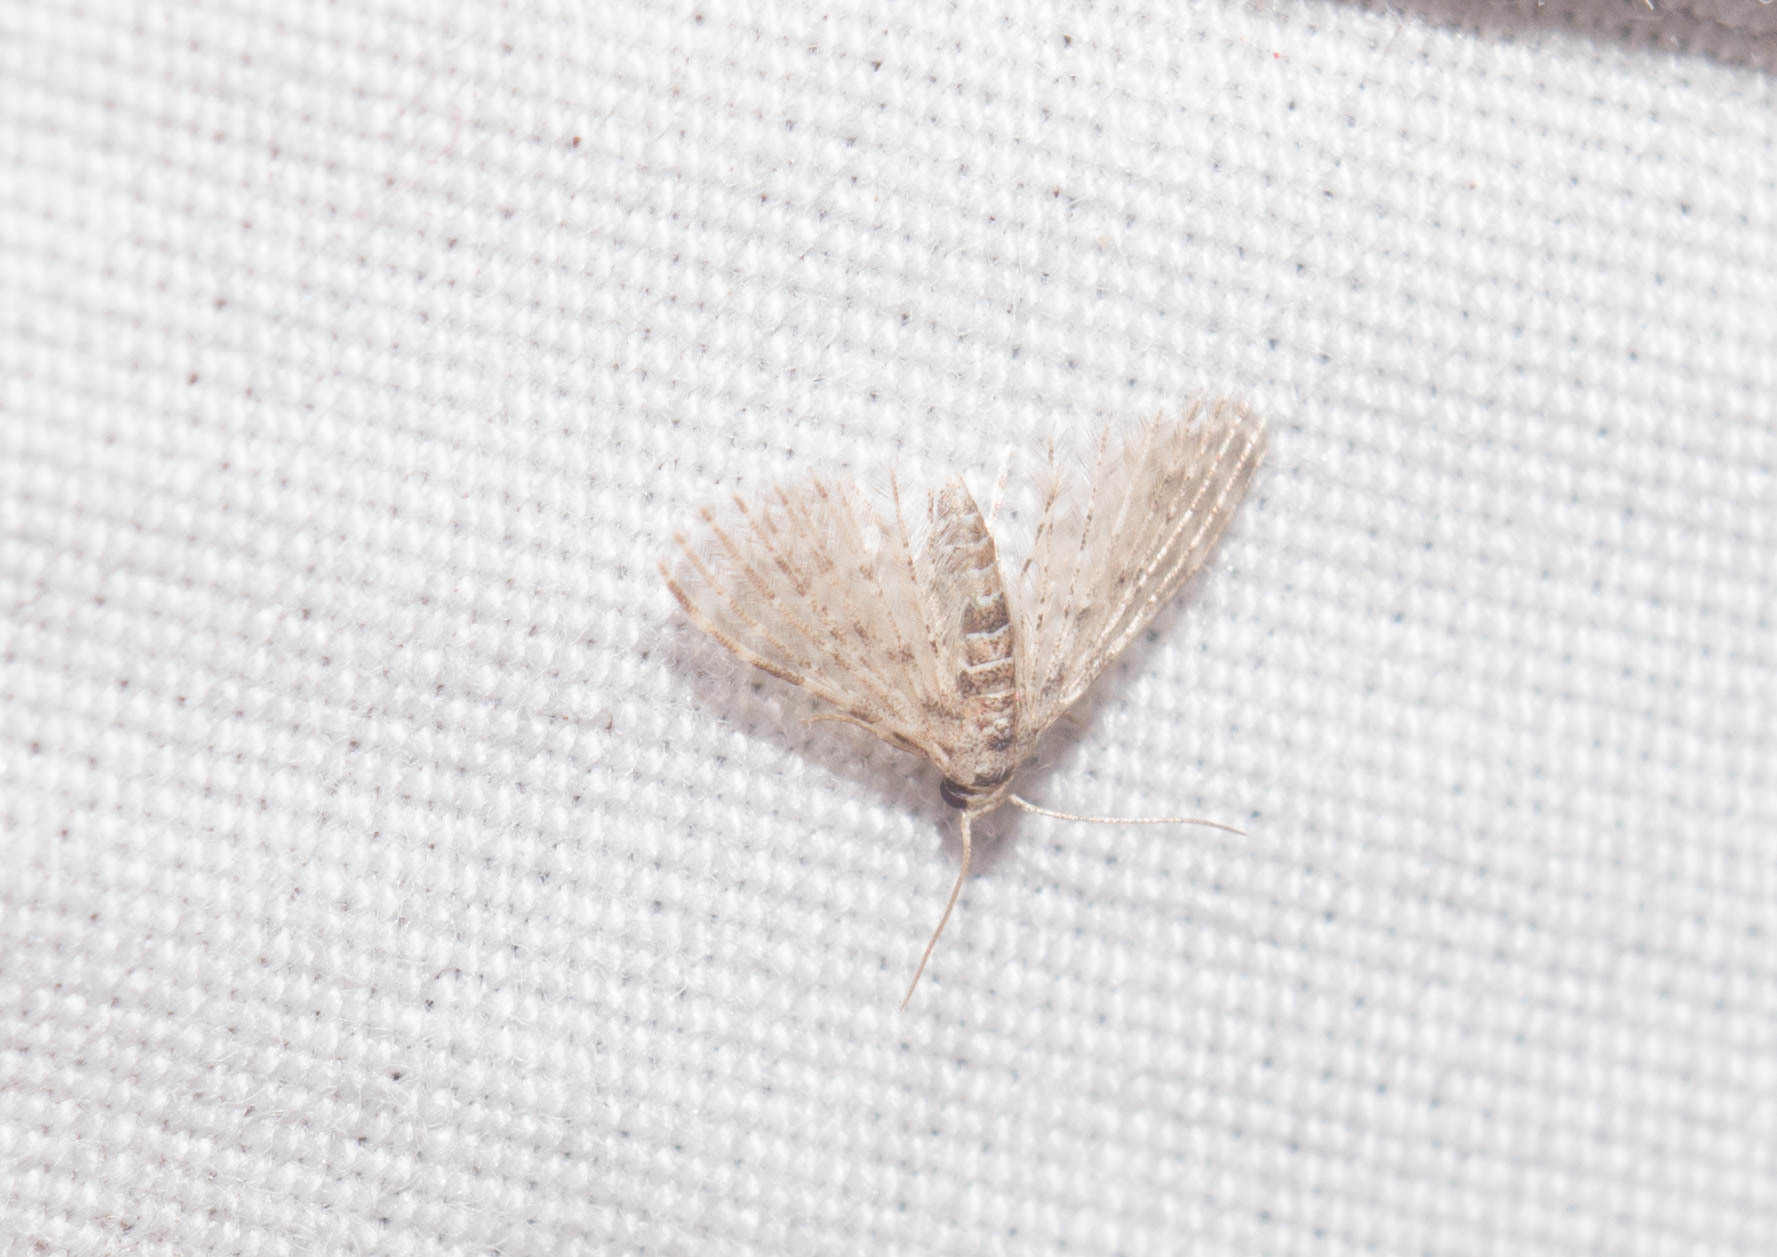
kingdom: Animalia
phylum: Arthropoda
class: Insecta
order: Lepidoptera
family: Alucitidae
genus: Alucita
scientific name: Alucita objurgatella
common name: Moth
